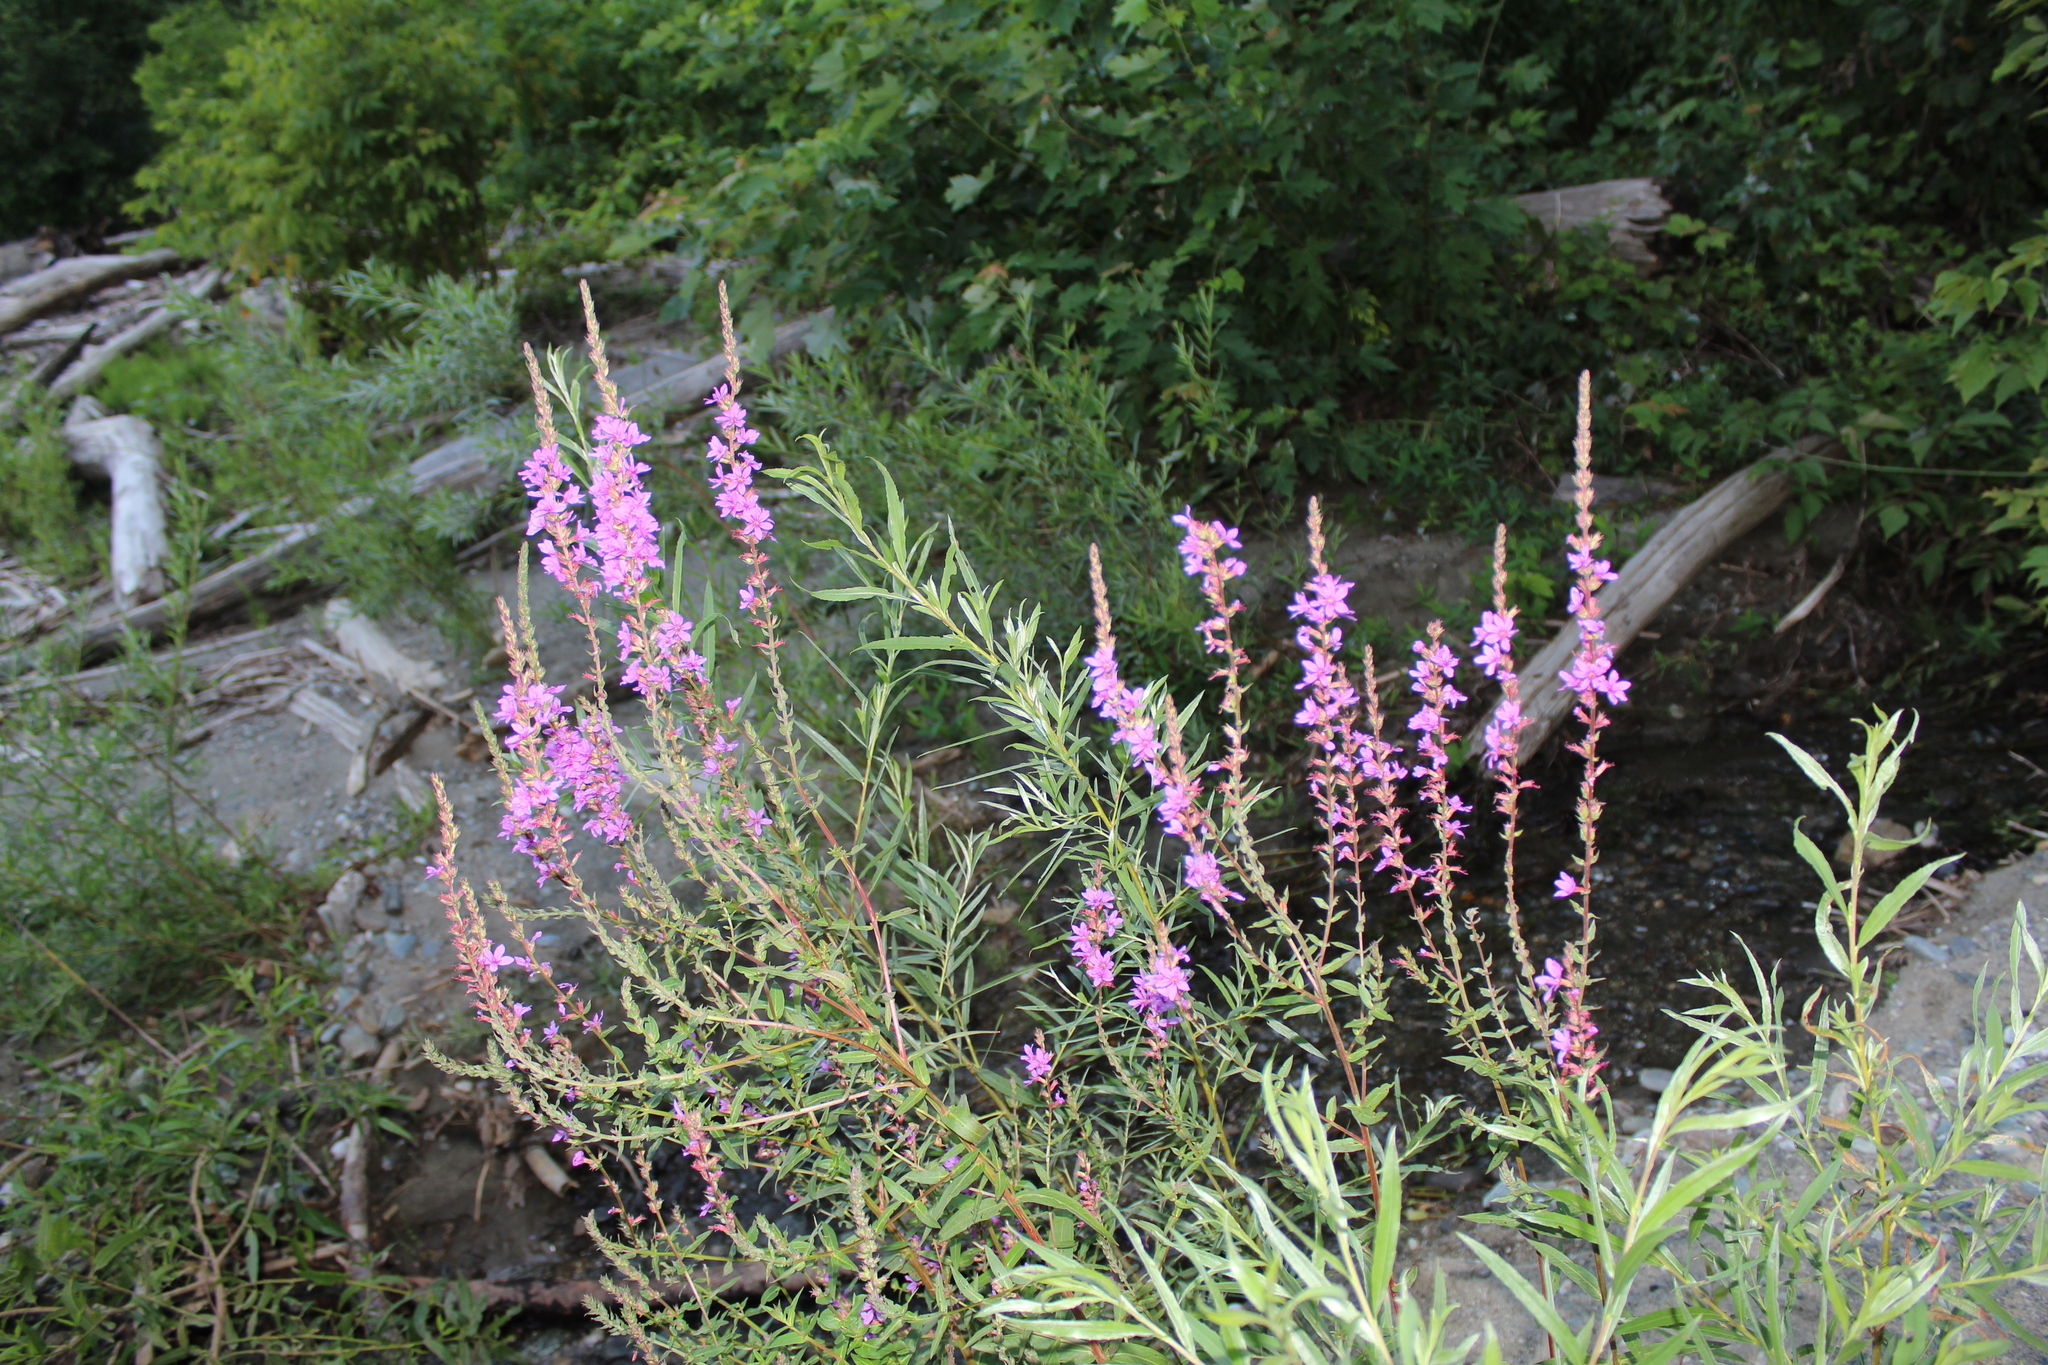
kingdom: Plantae
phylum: Tracheophyta
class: Magnoliopsida
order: Myrtales
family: Lythraceae
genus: Lythrum
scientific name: Lythrum salicaria
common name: Purple loosestrife
